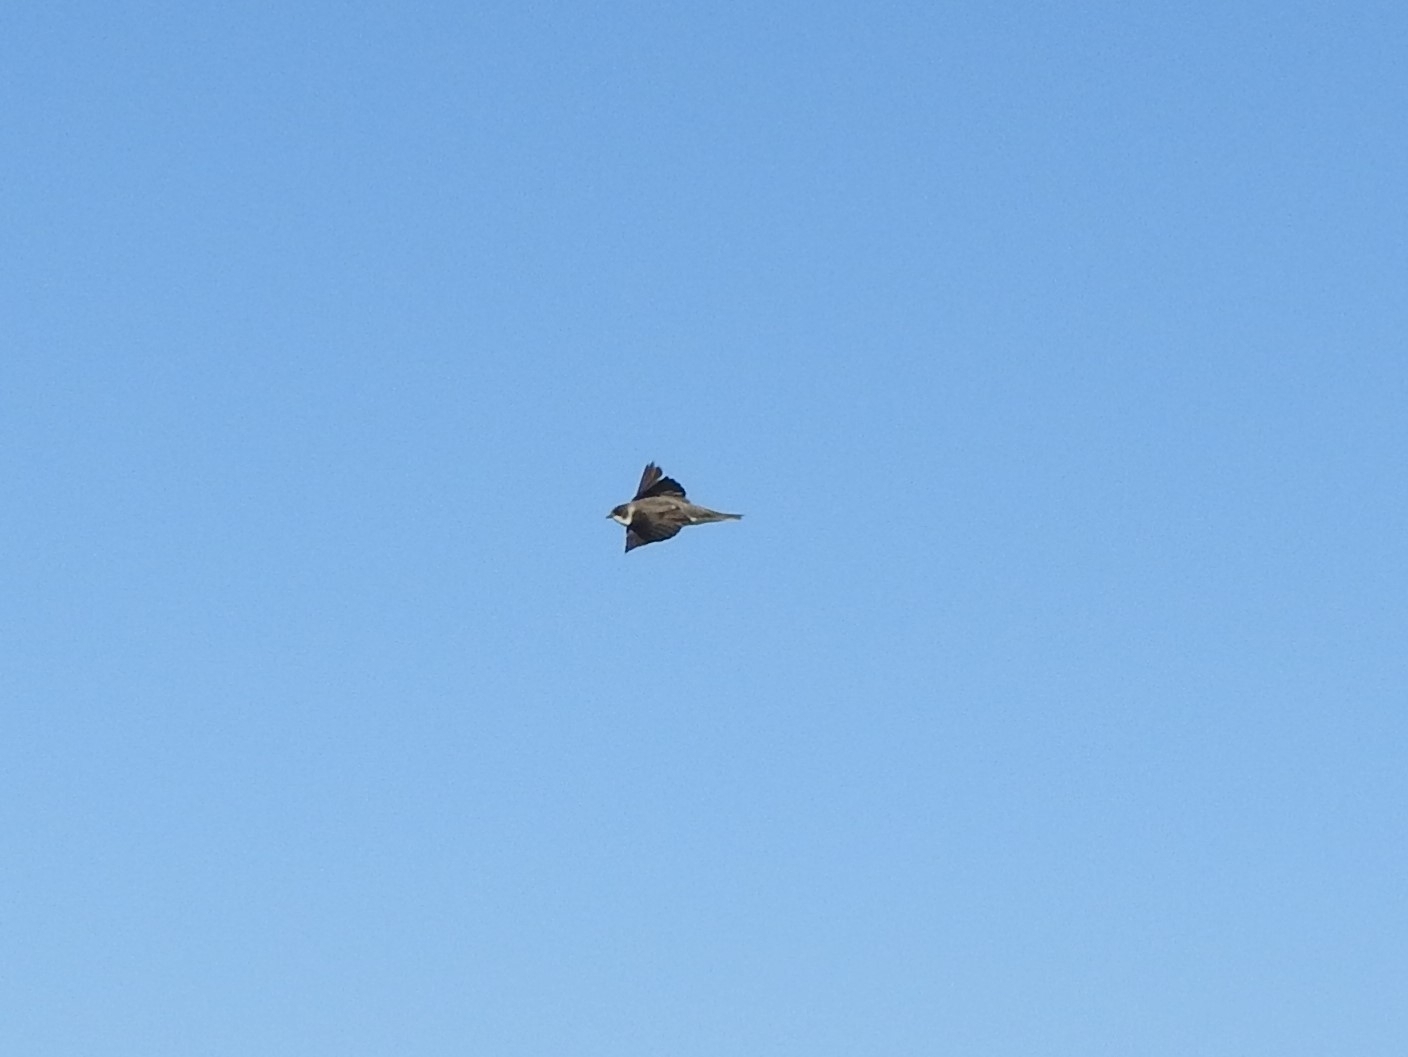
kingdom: Animalia
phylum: Chordata
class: Aves
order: Passeriformes
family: Hirundinidae
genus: Riparia
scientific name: Riparia riparia
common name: Sand martin
